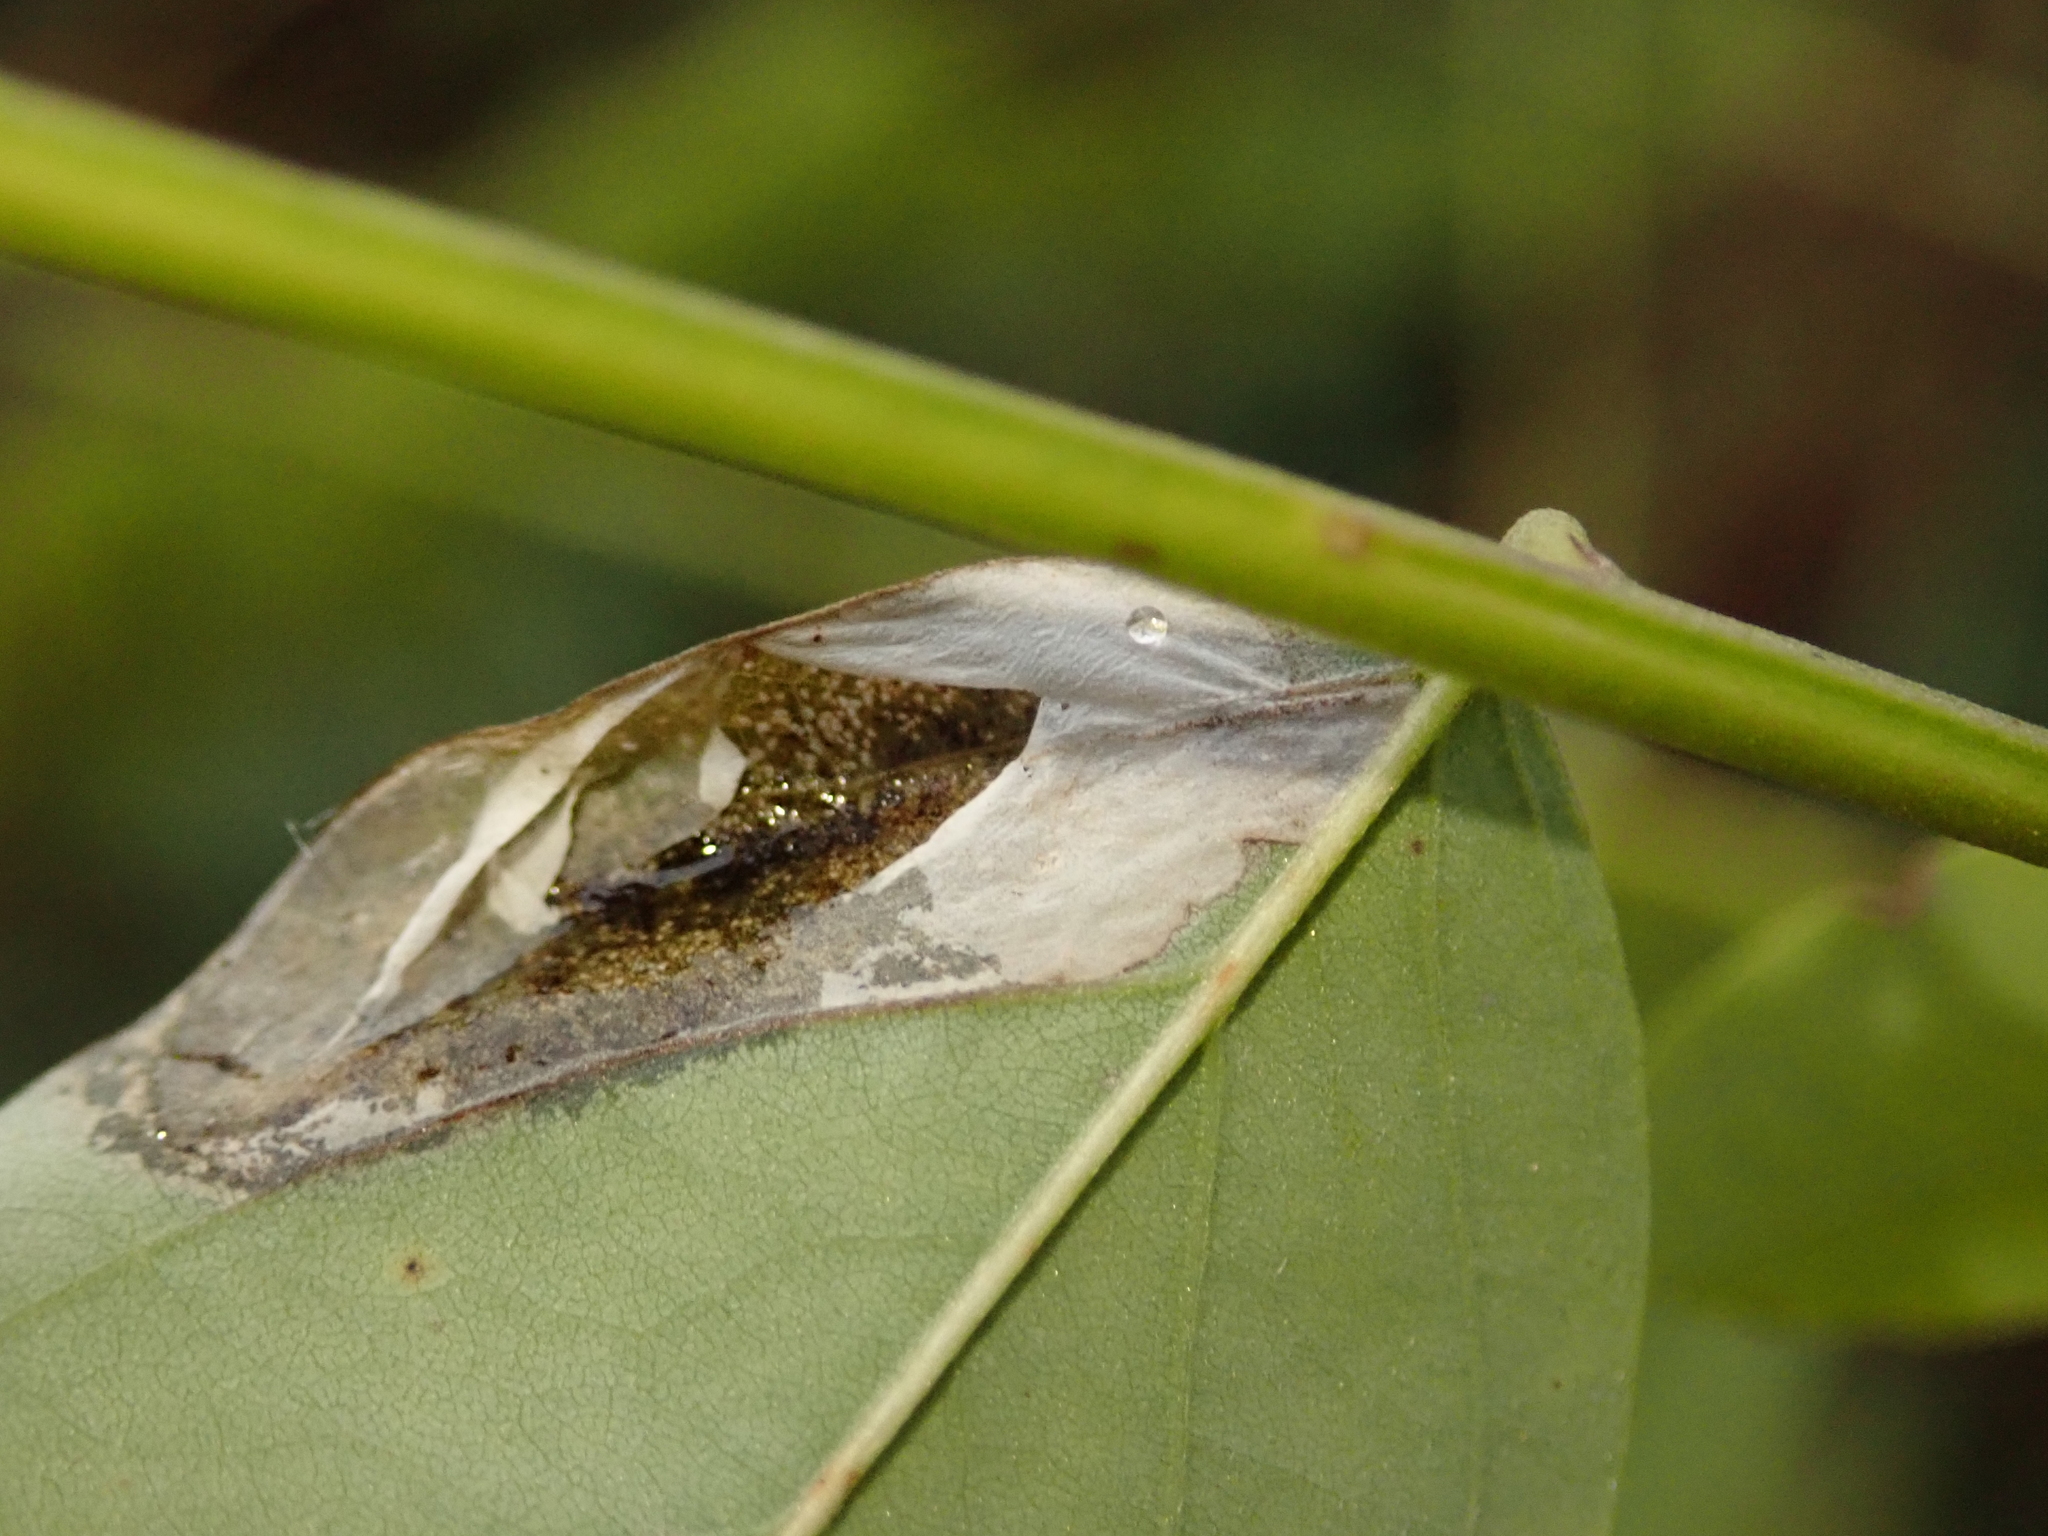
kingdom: Animalia
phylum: Arthropoda
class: Insecta
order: Lepidoptera
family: Gracillariidae
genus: Macrosaccus
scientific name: Macrosaccus robiniella
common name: Leaf blotch miner moth
